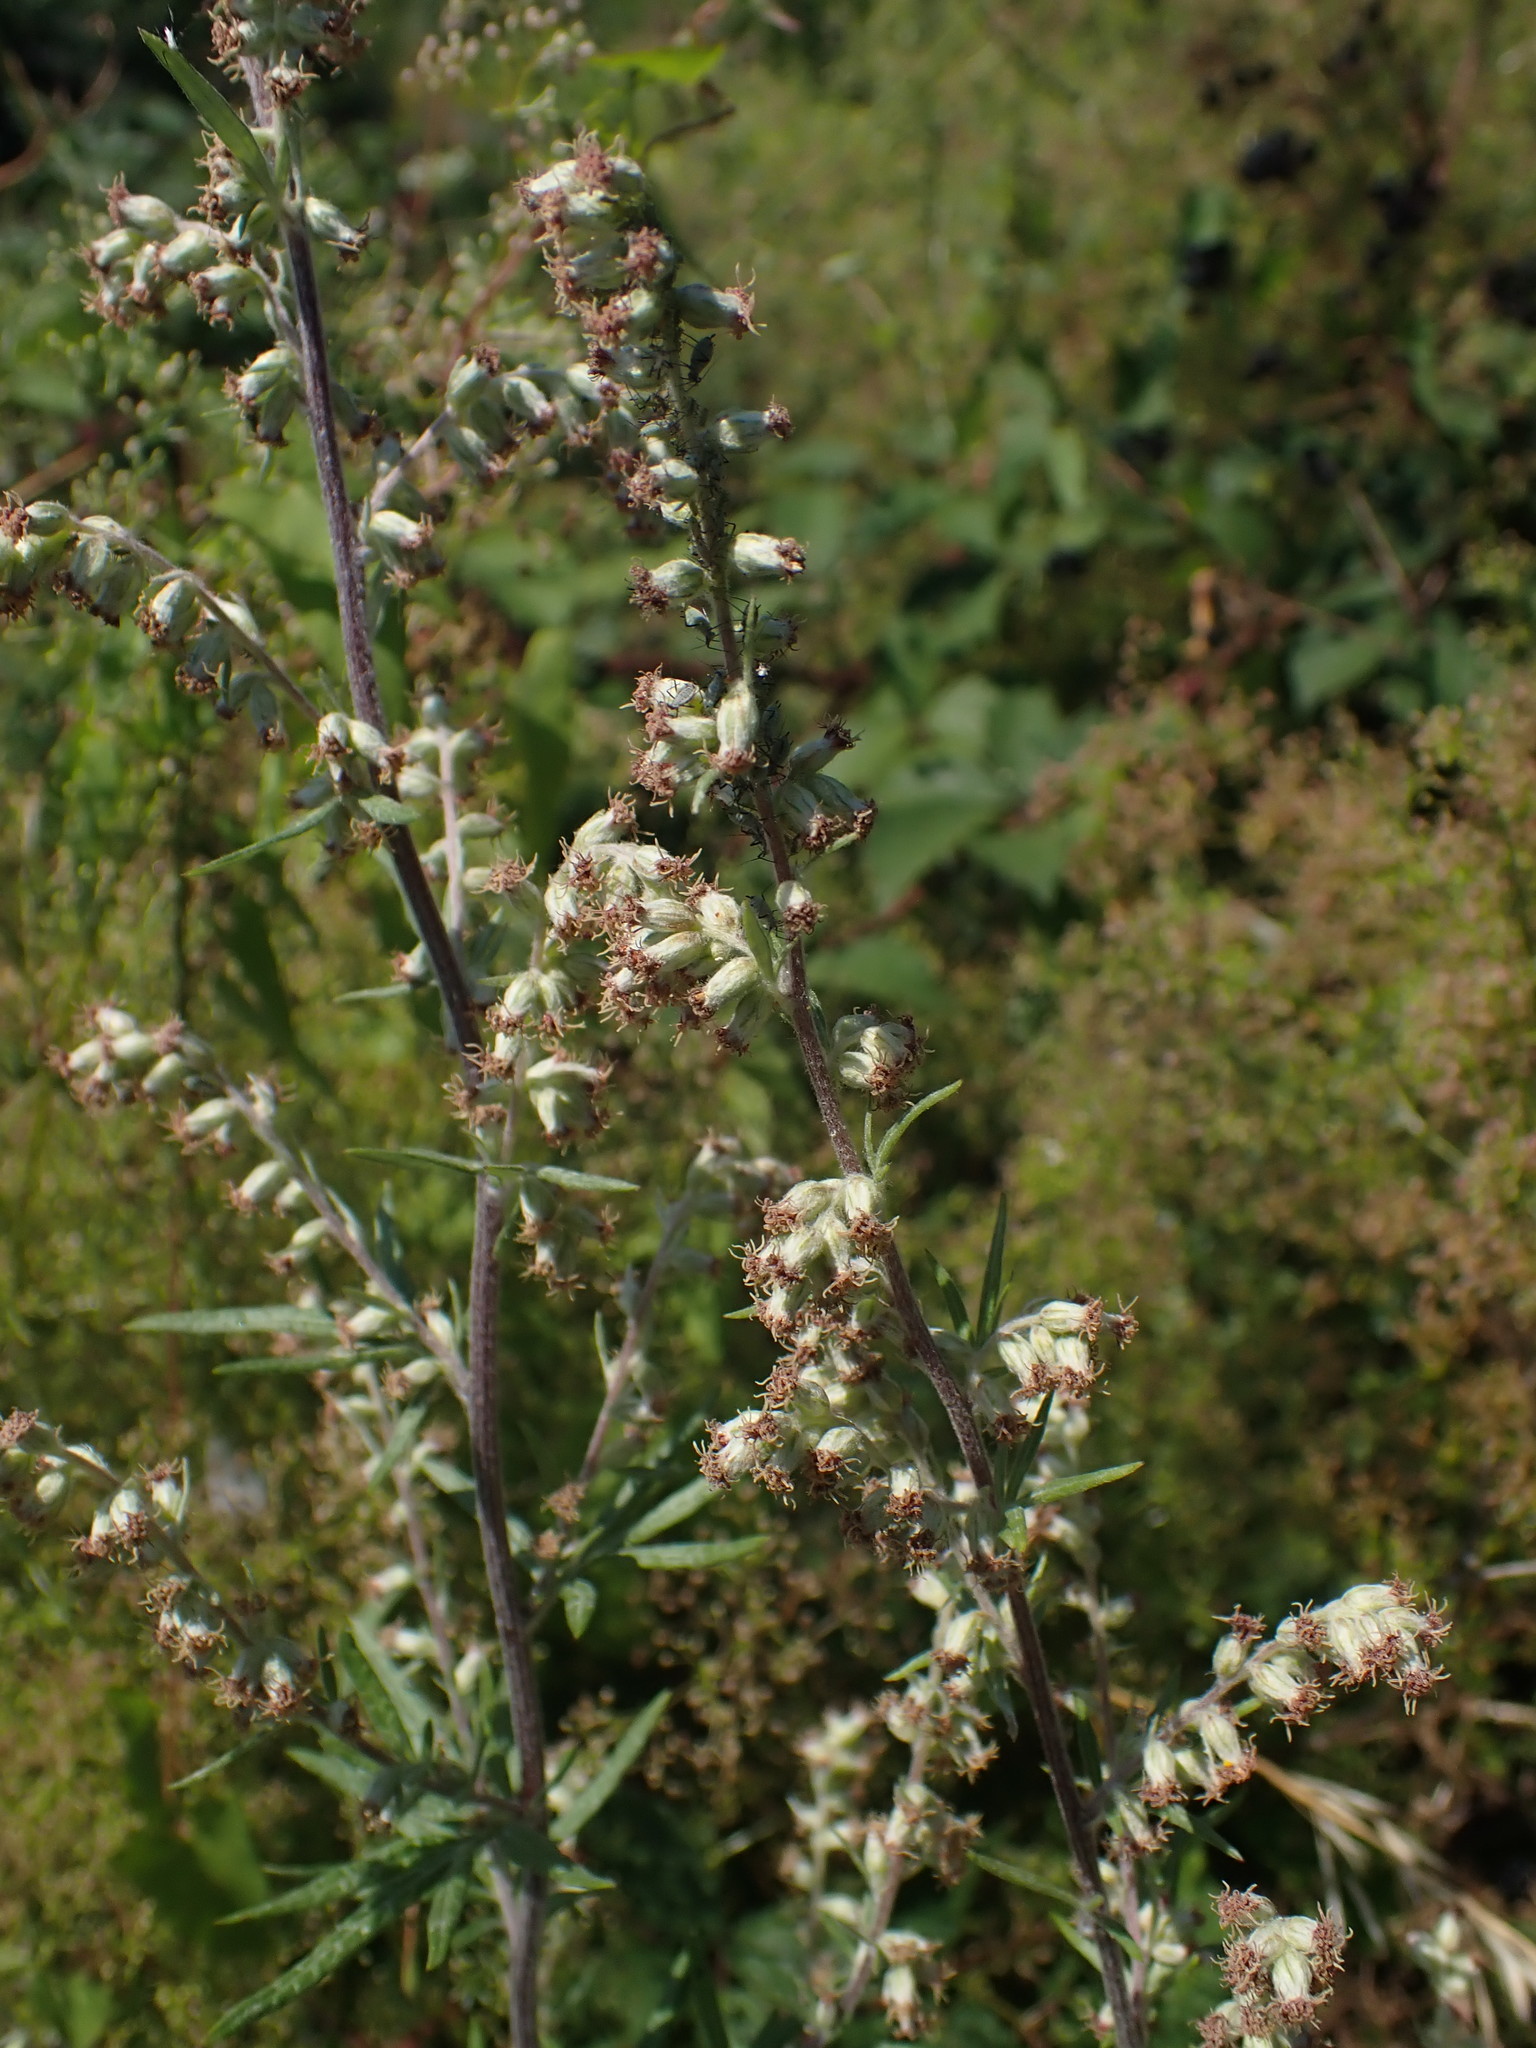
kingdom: Plantae
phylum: Tracheophyta
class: Magnoliopsida
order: Asterales
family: Asteraceae
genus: Artemisia
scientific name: Artemisia vulgaris
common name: Mugwort
